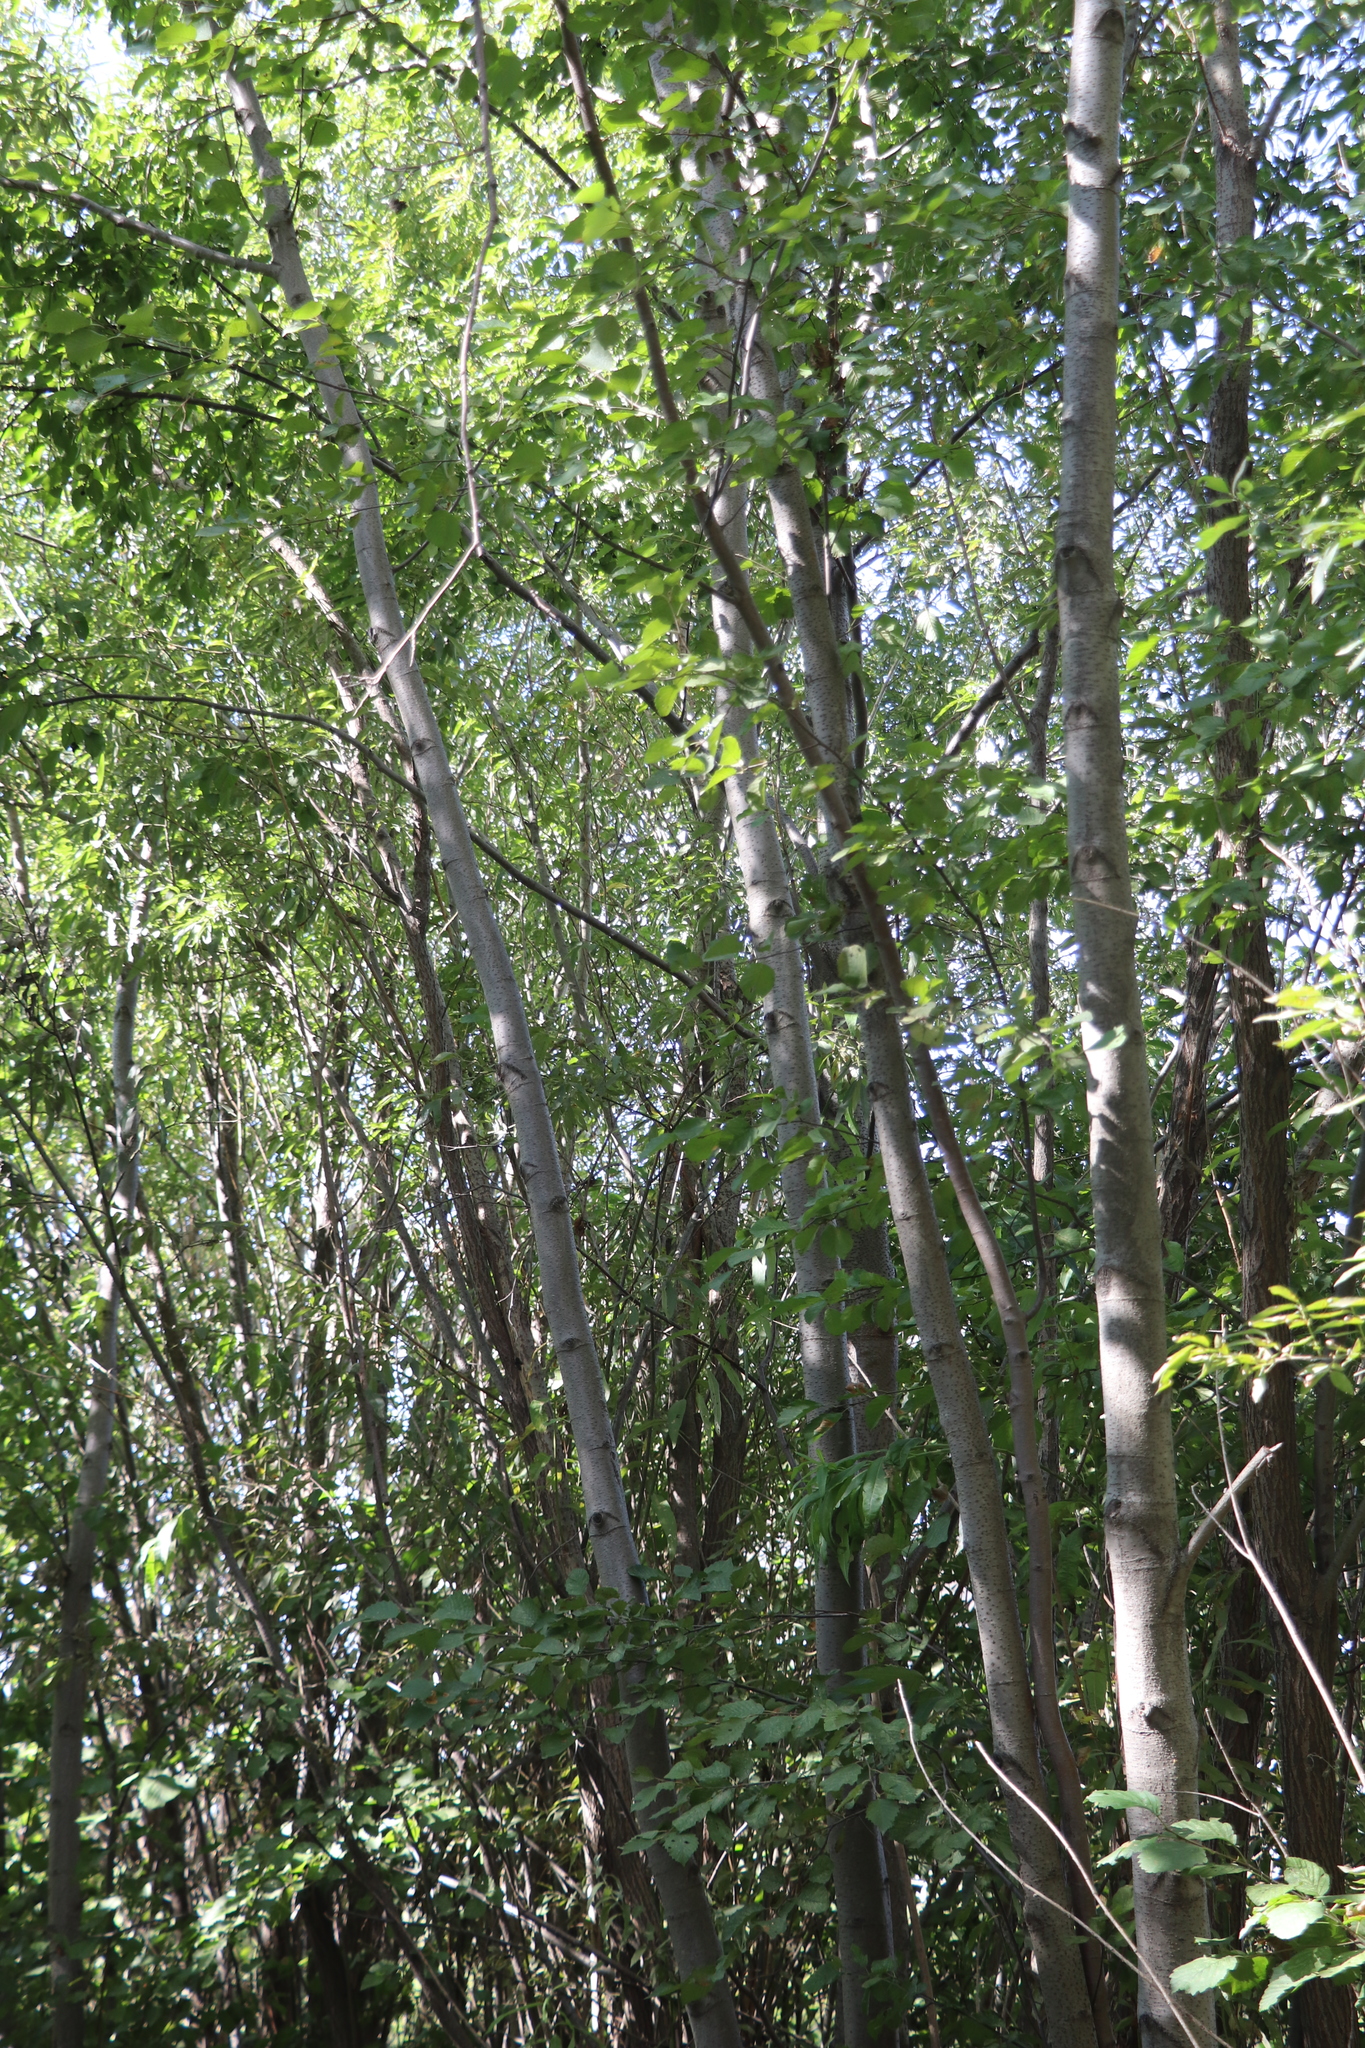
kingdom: Plantae
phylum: Tracheophyta
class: Magnoliopsida
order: Fagales
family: Betulaceae
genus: Alnus
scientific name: Alnus incana
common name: Grey alder
